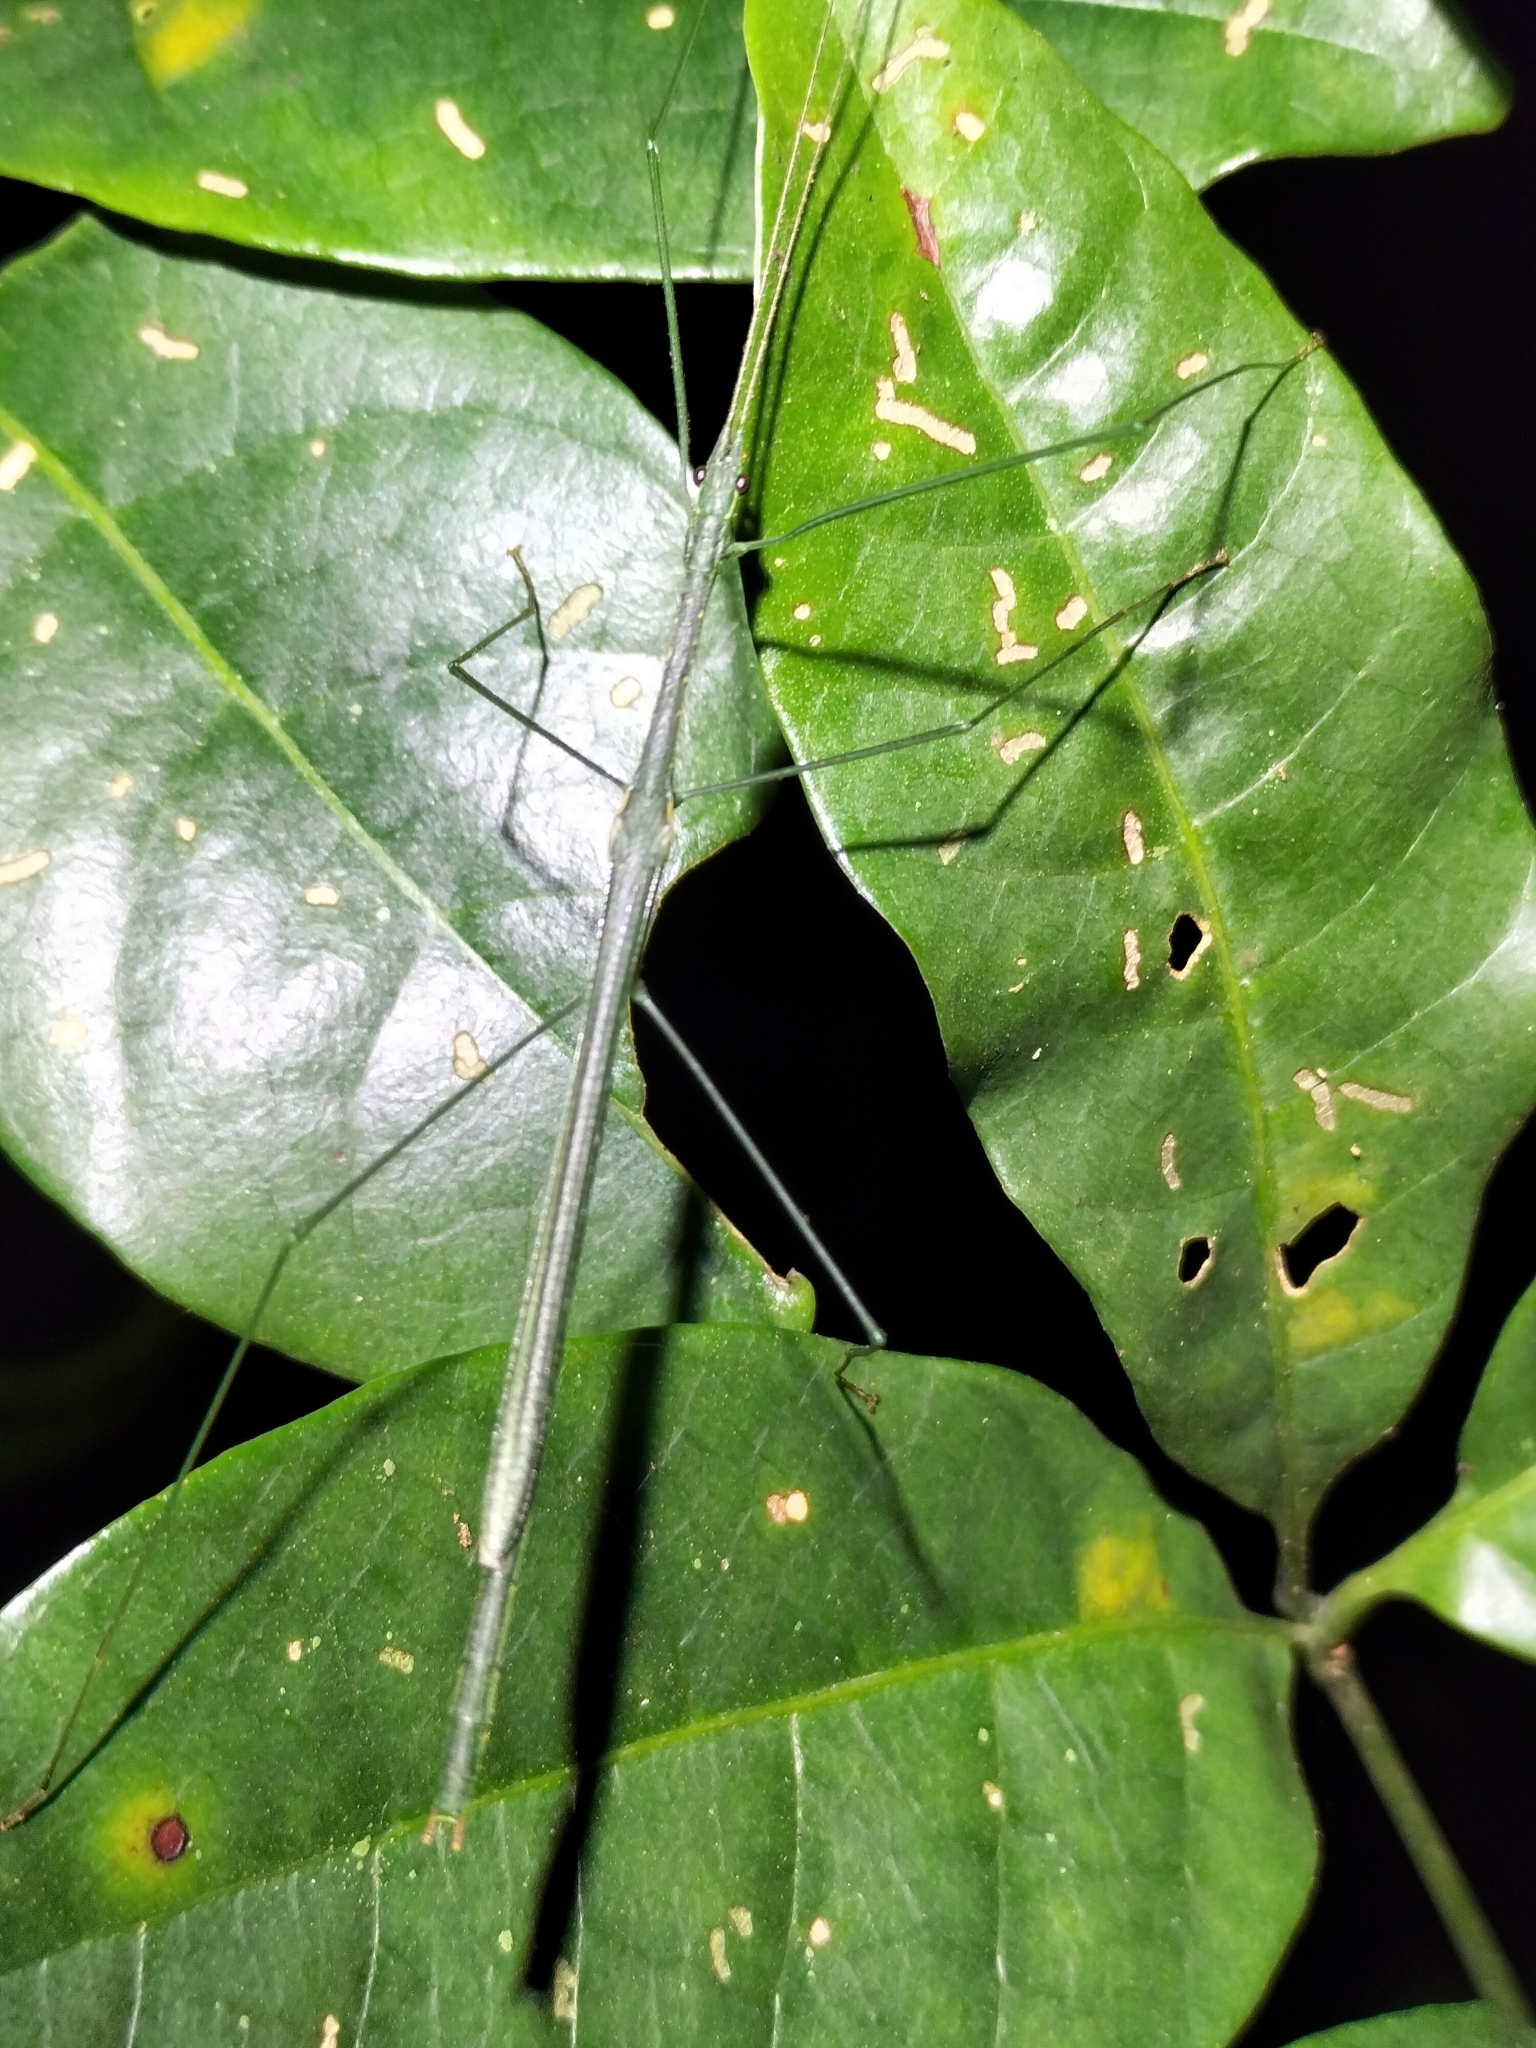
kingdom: Animalia
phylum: Arthropoda
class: Insecta
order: Phasmida
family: Lonchodidae
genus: Sipyloidea
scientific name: Sipyloidea rentzi
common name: Rentz's sipyloidea stick-insect
